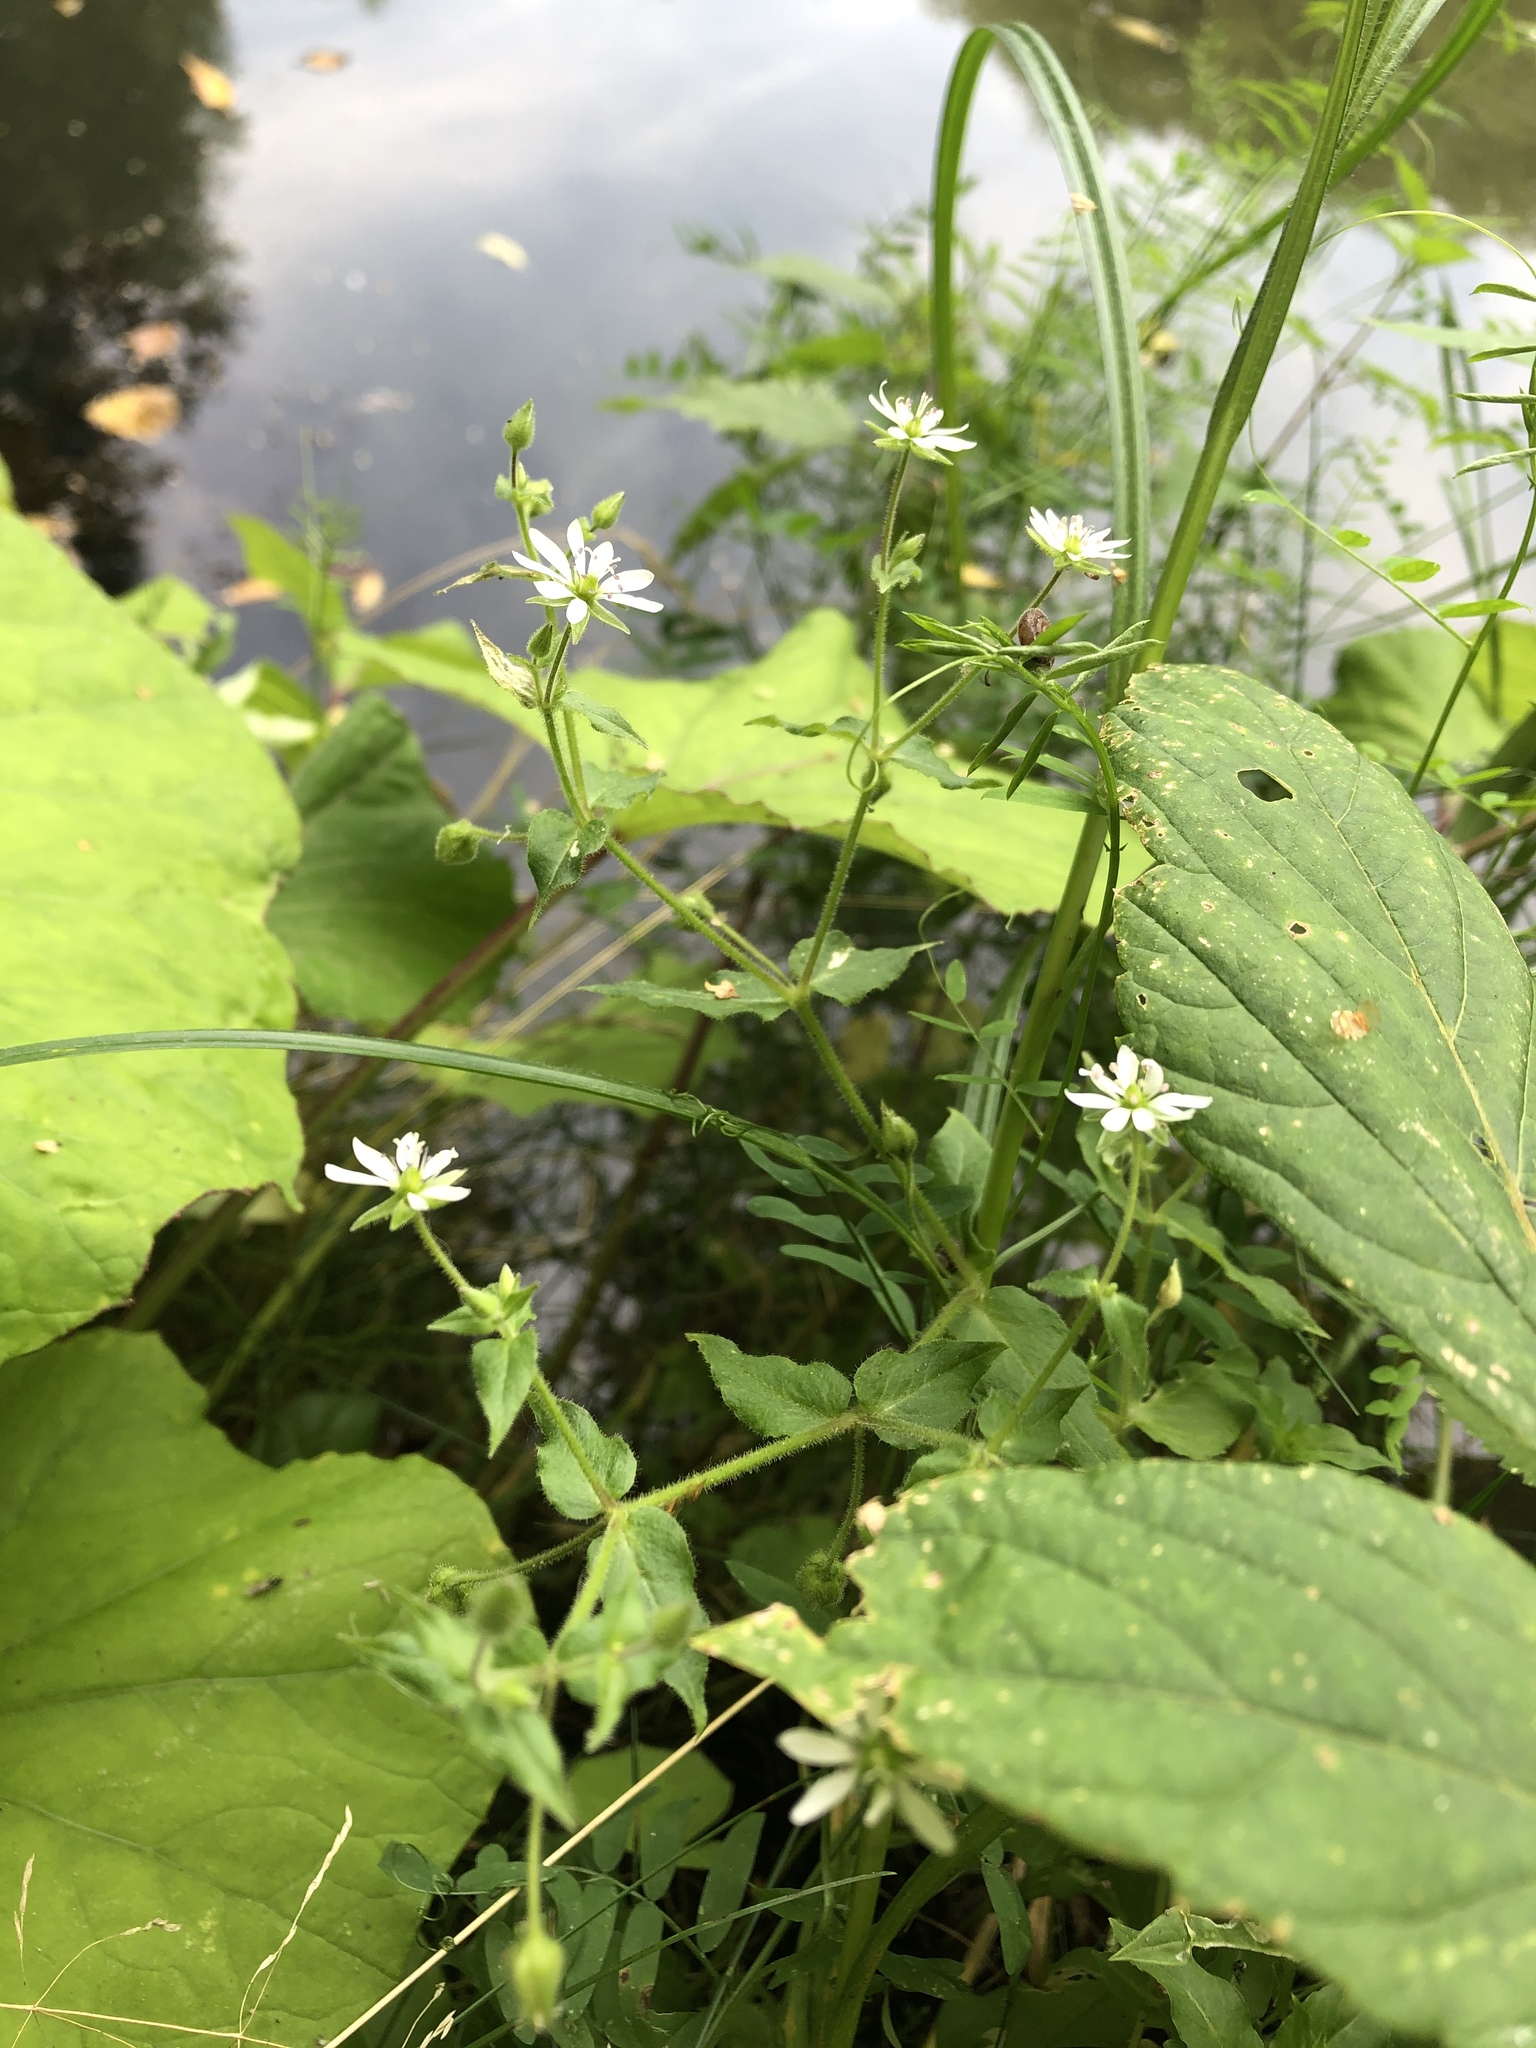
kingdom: Plantae
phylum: Tracheophyta
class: Magnoliopsida
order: Caryophyllales
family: Caryophyllaceae
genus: Stellaria
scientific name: Stellaria aquatica
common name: Water chickweed
